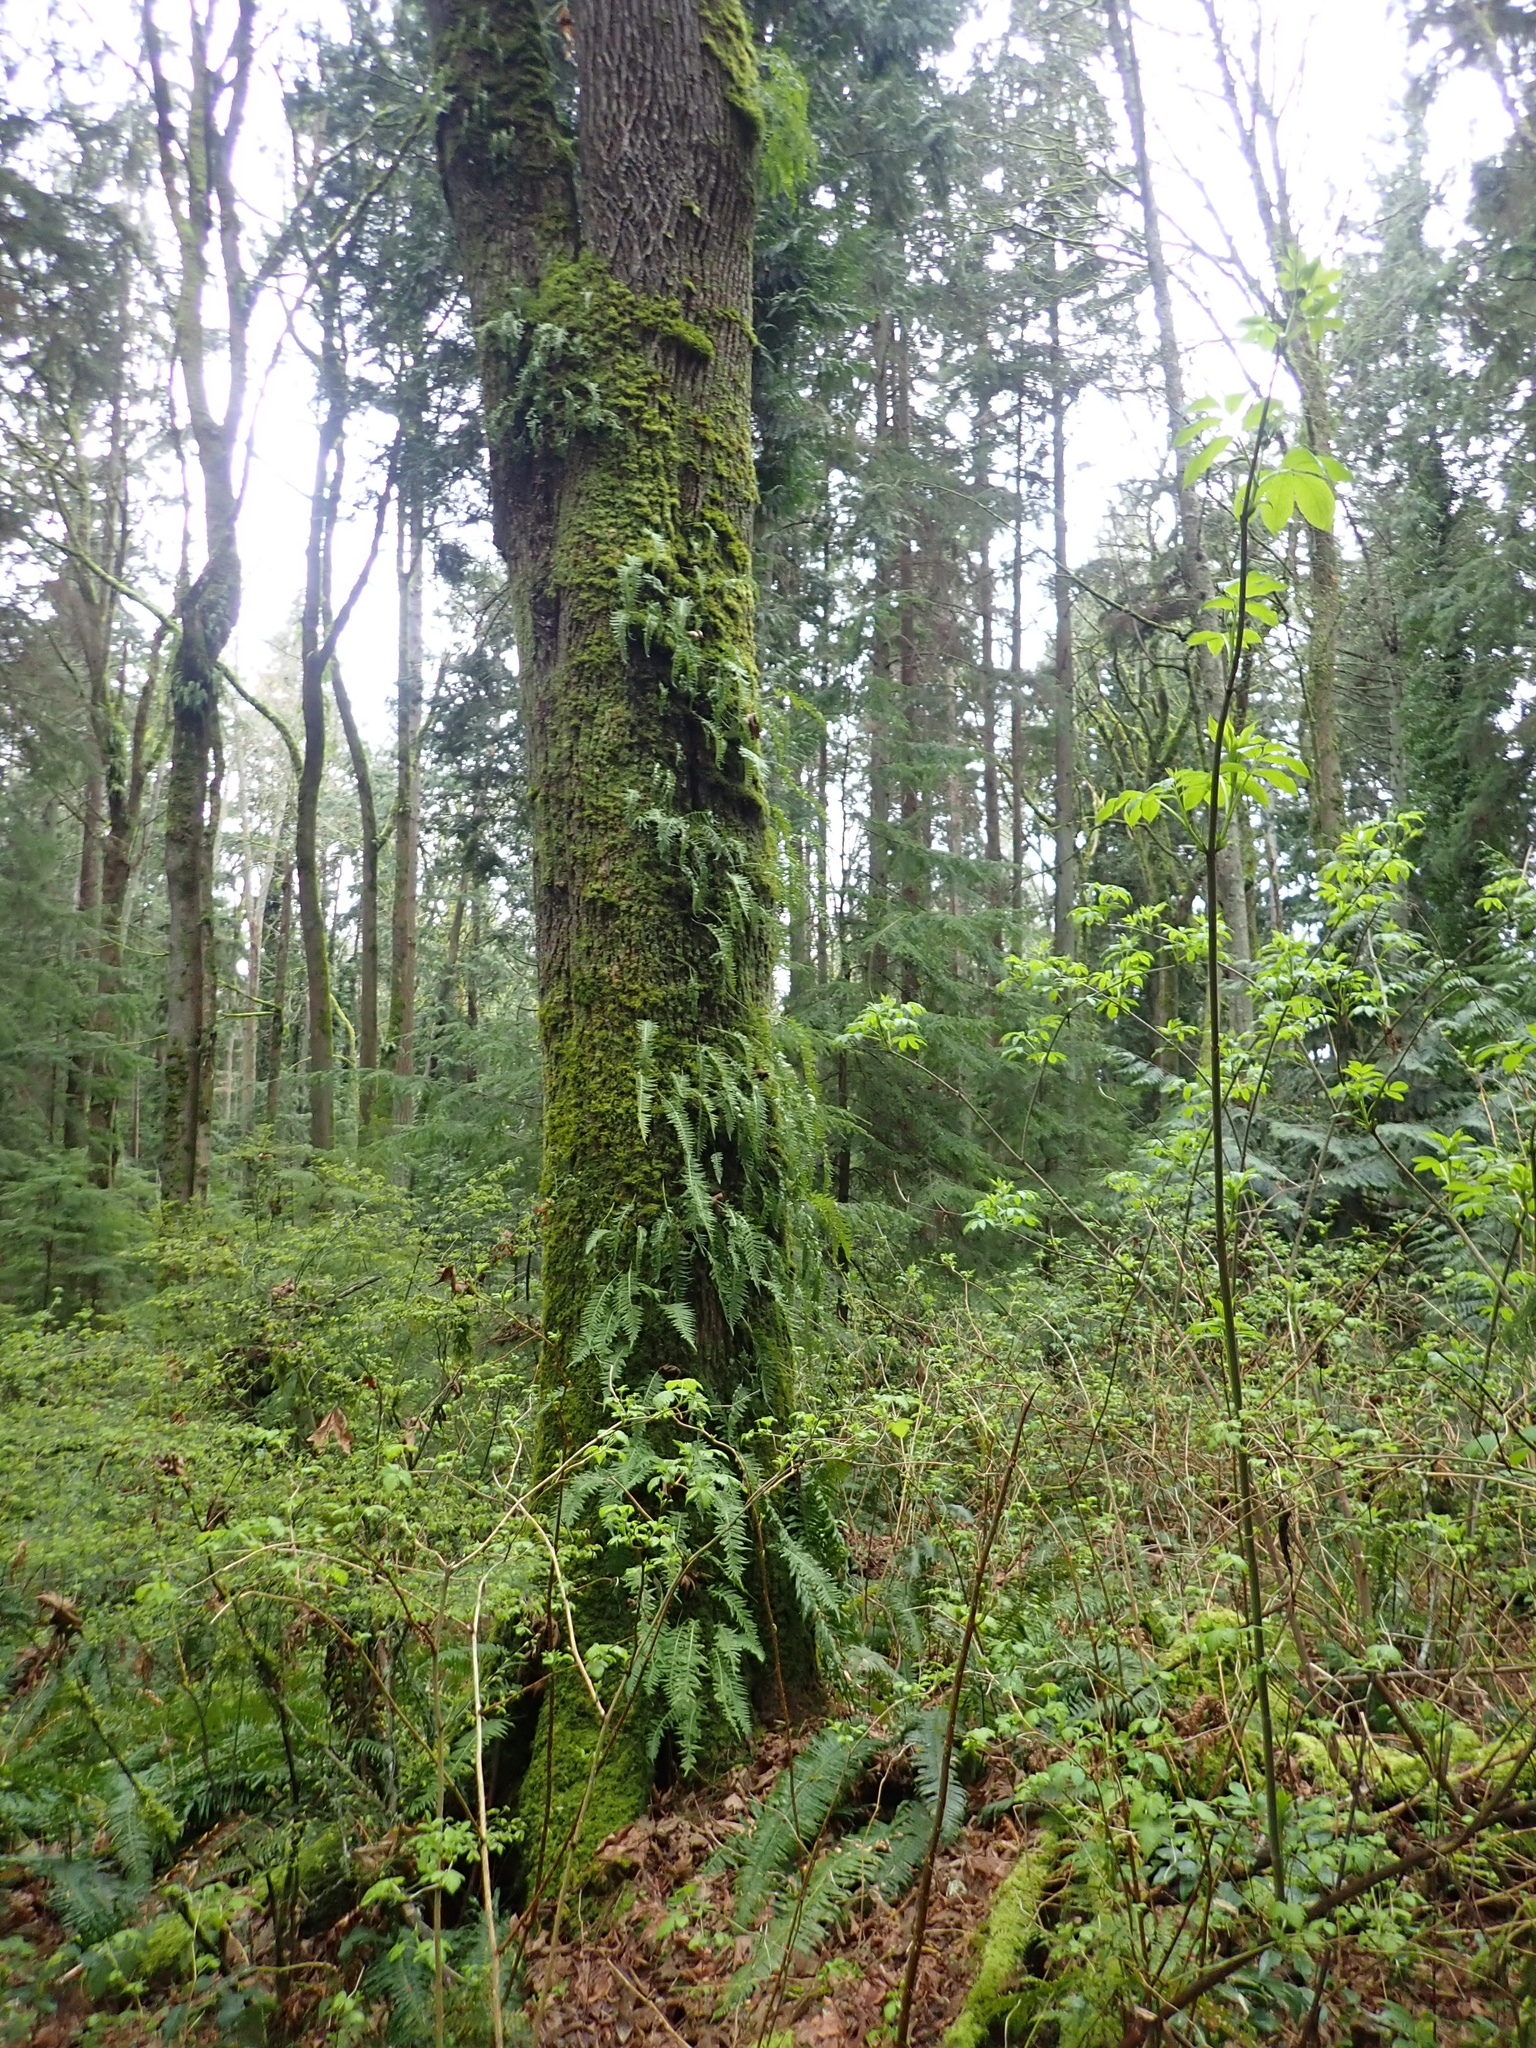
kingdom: Plantae
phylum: Tracheophyta
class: Polypodiopsida
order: Polypodiales
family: Polypodiaceae
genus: Polypodium
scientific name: Polypodium glycyrrhiza
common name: Licorice fern
